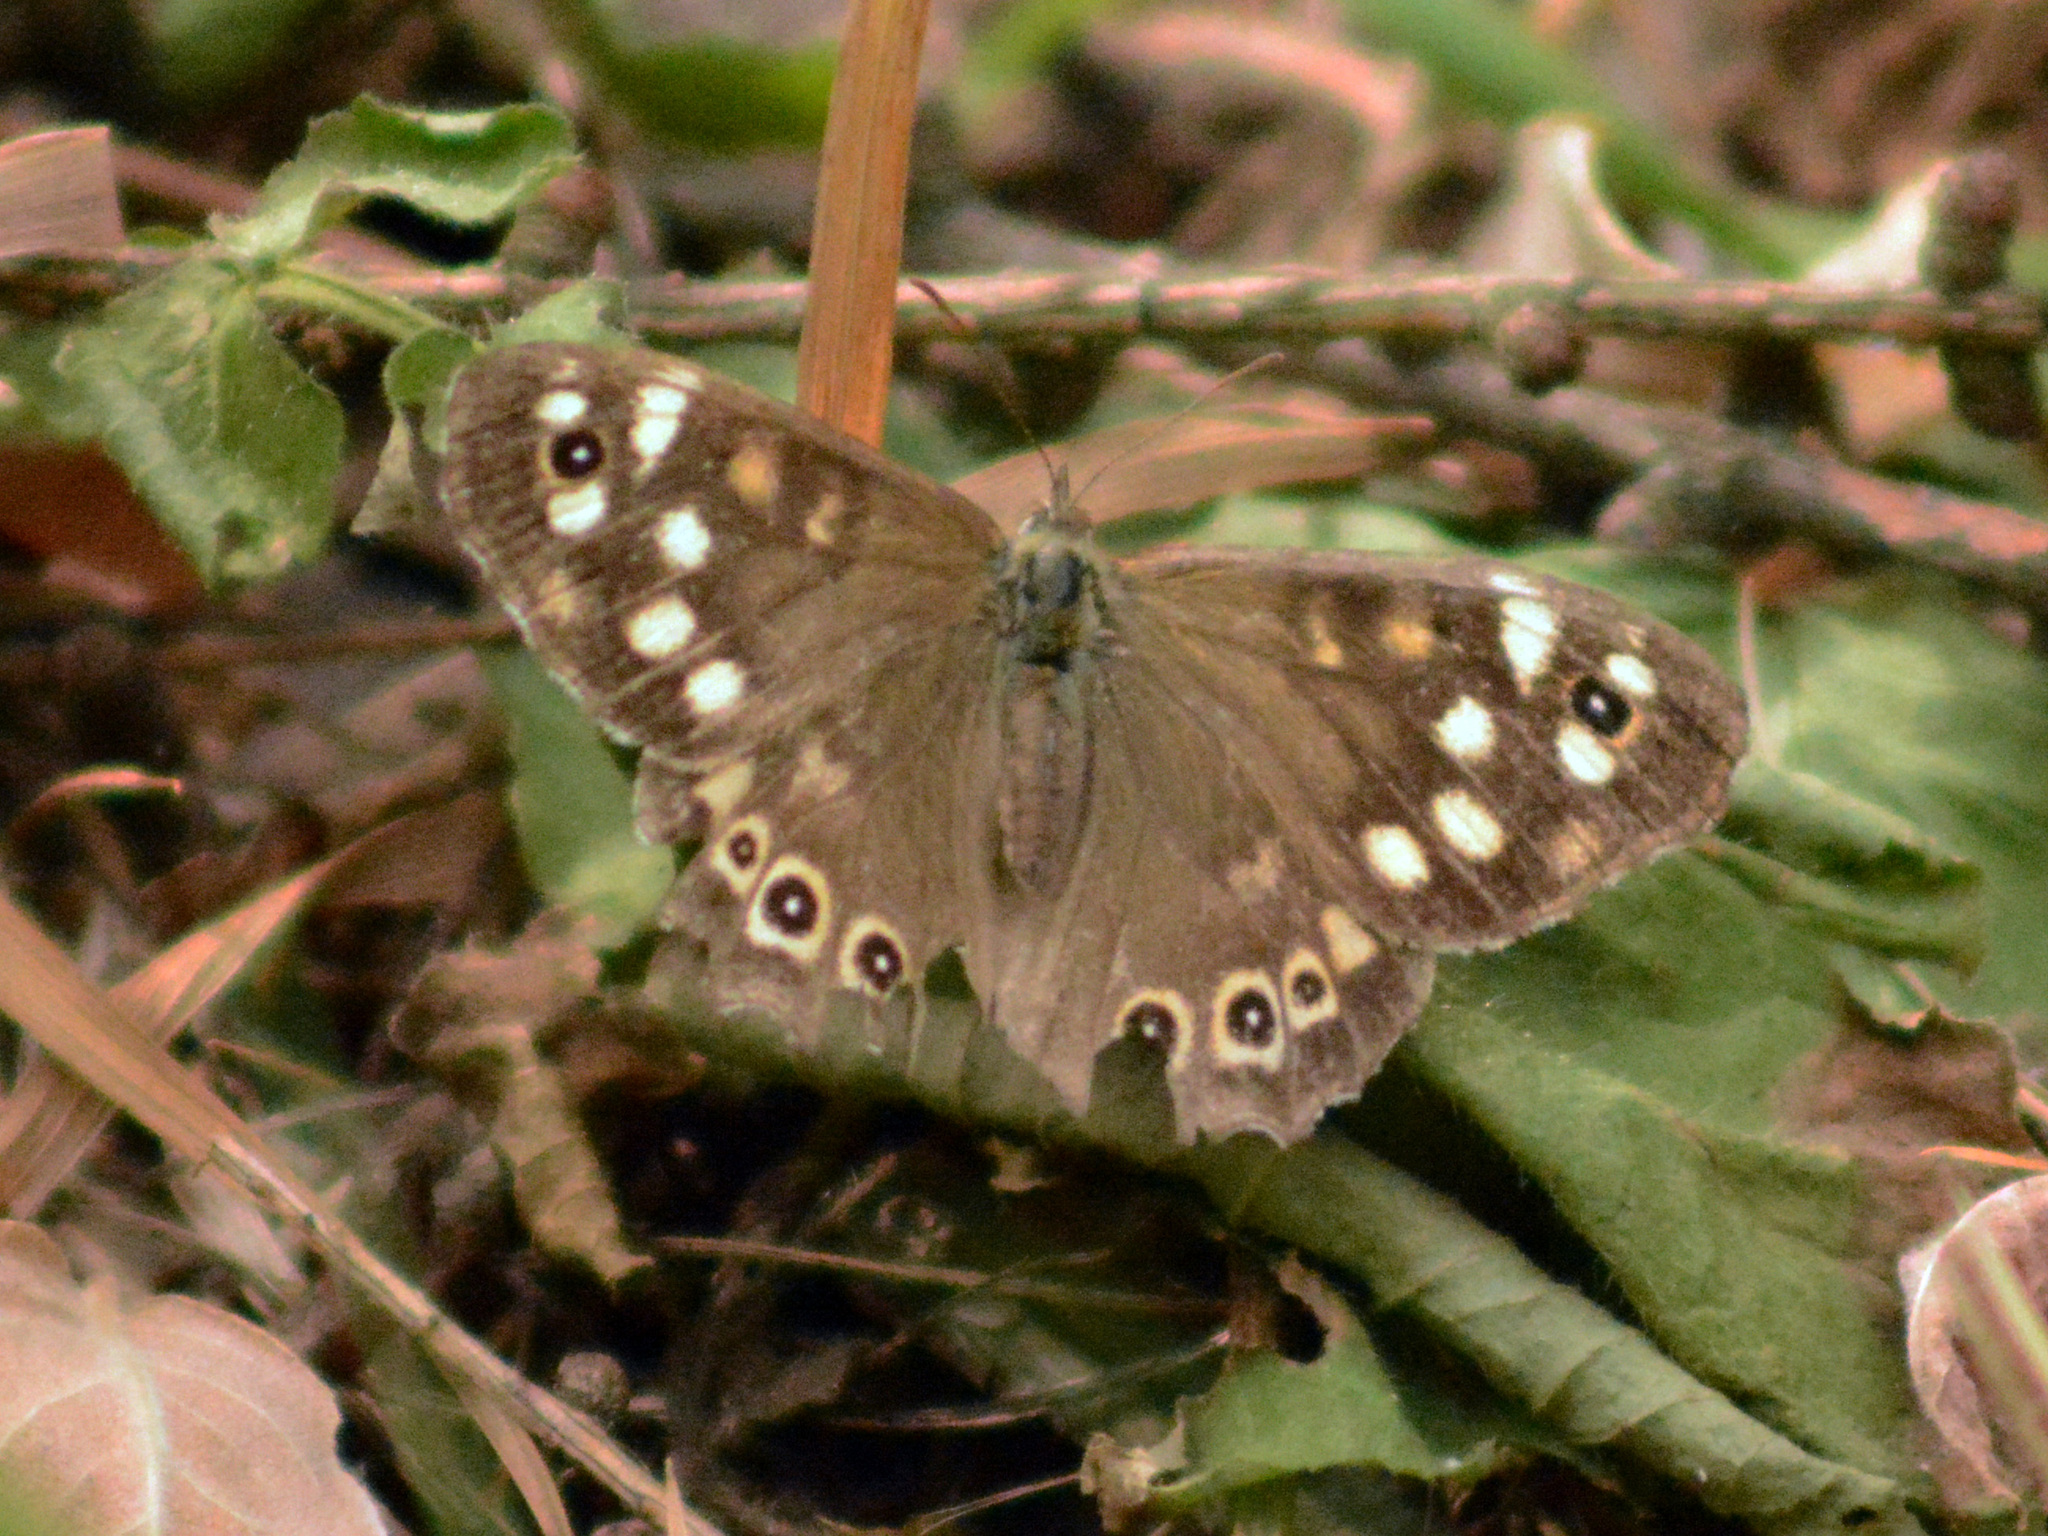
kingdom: Animalia
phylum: Arthropoda
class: Insecta
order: Lepidoptera
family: Nymphalidae
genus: Pararge
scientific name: Pararge aegeria
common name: Speckled wood
